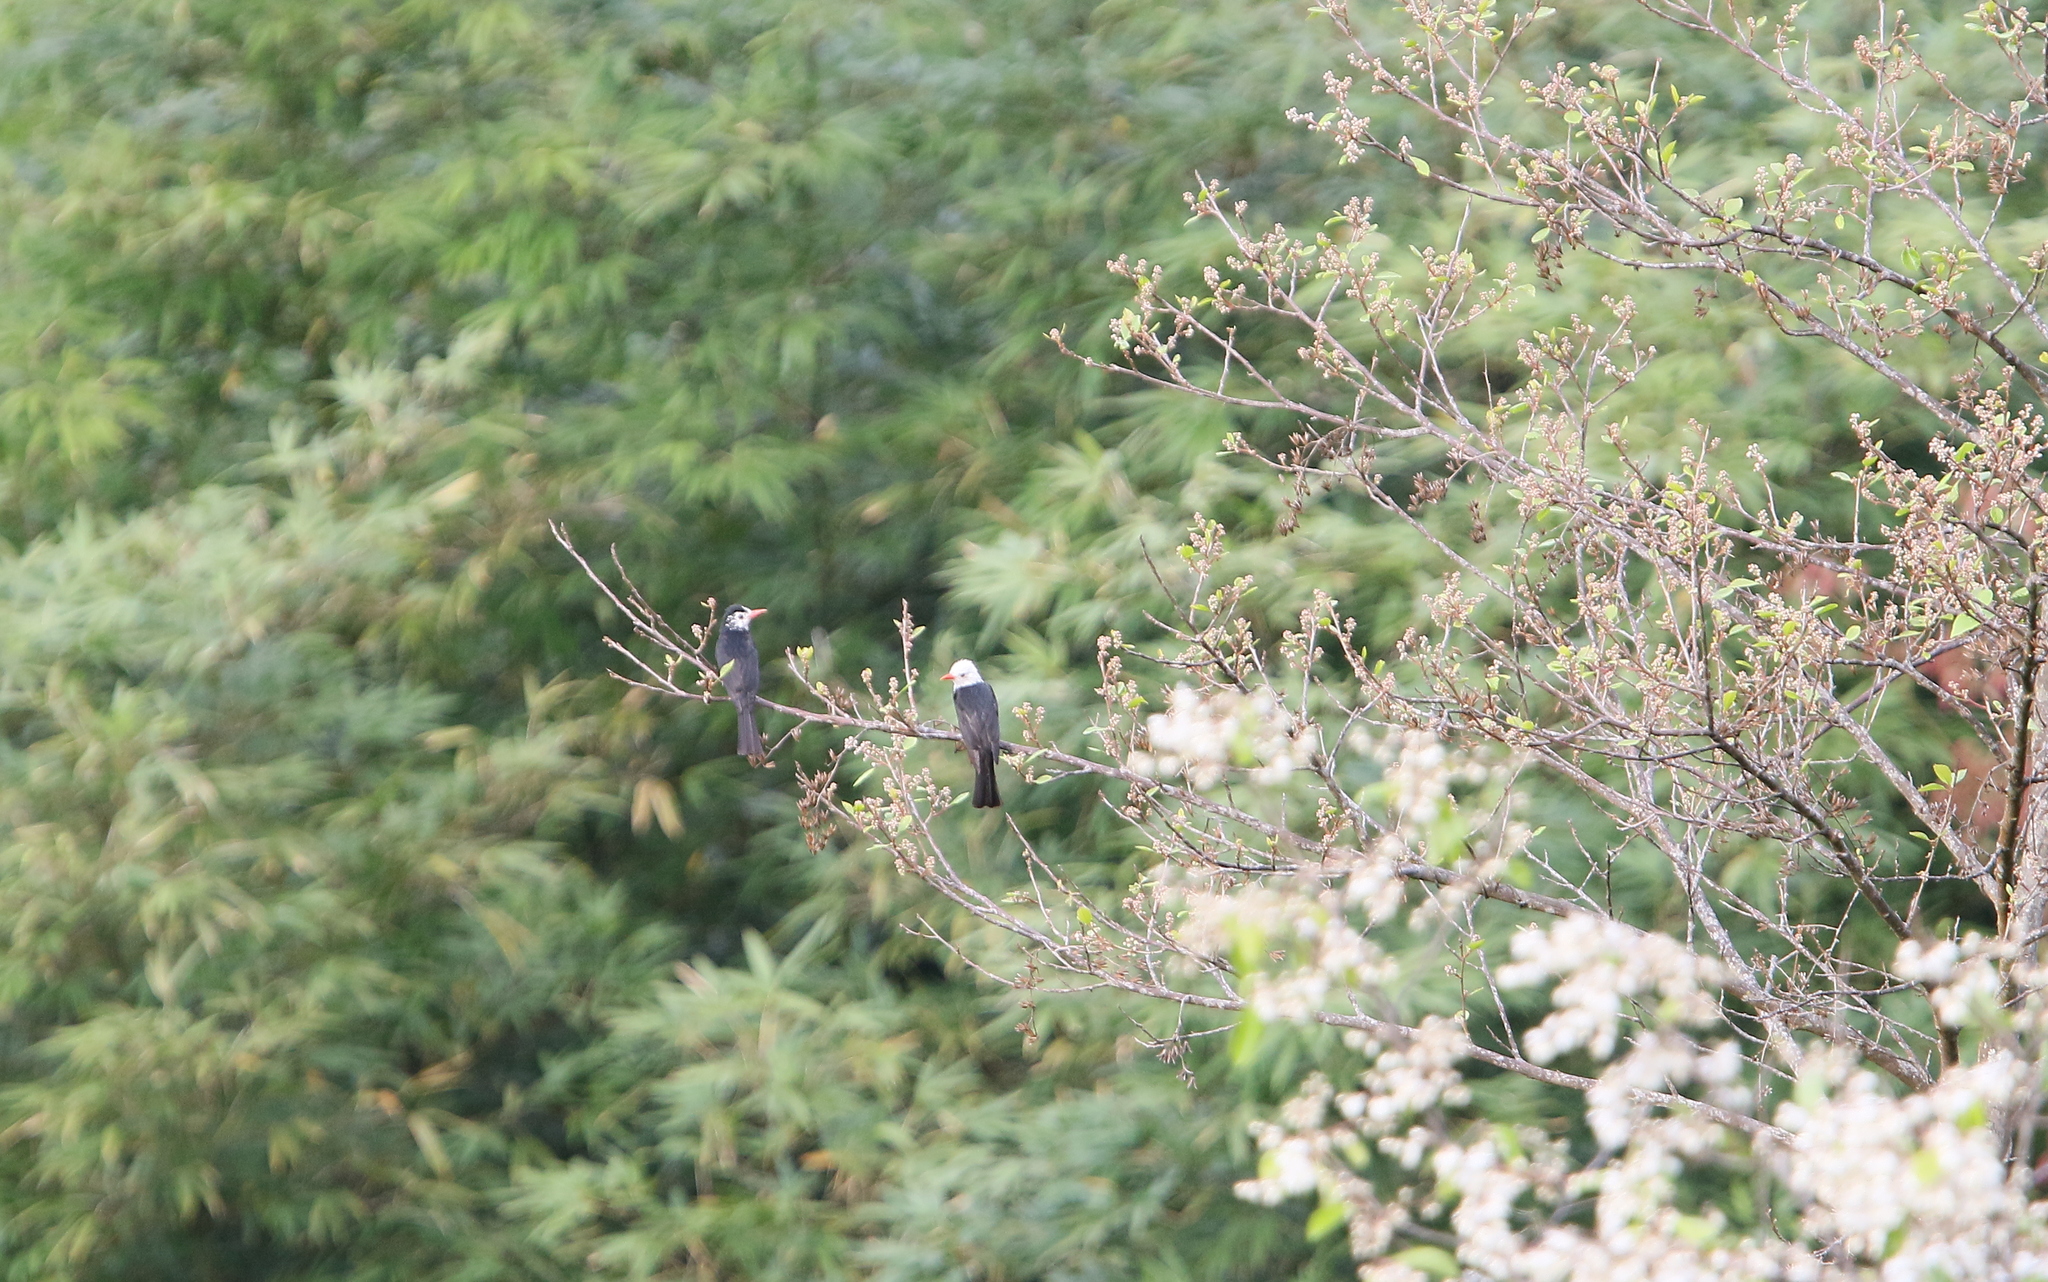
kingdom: Animalia
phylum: Chordata
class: Aves
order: Passeriformes
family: Pycnonotidae
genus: Hypsipetes
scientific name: Hypsipetes leucocephalus
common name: Black bulbul
